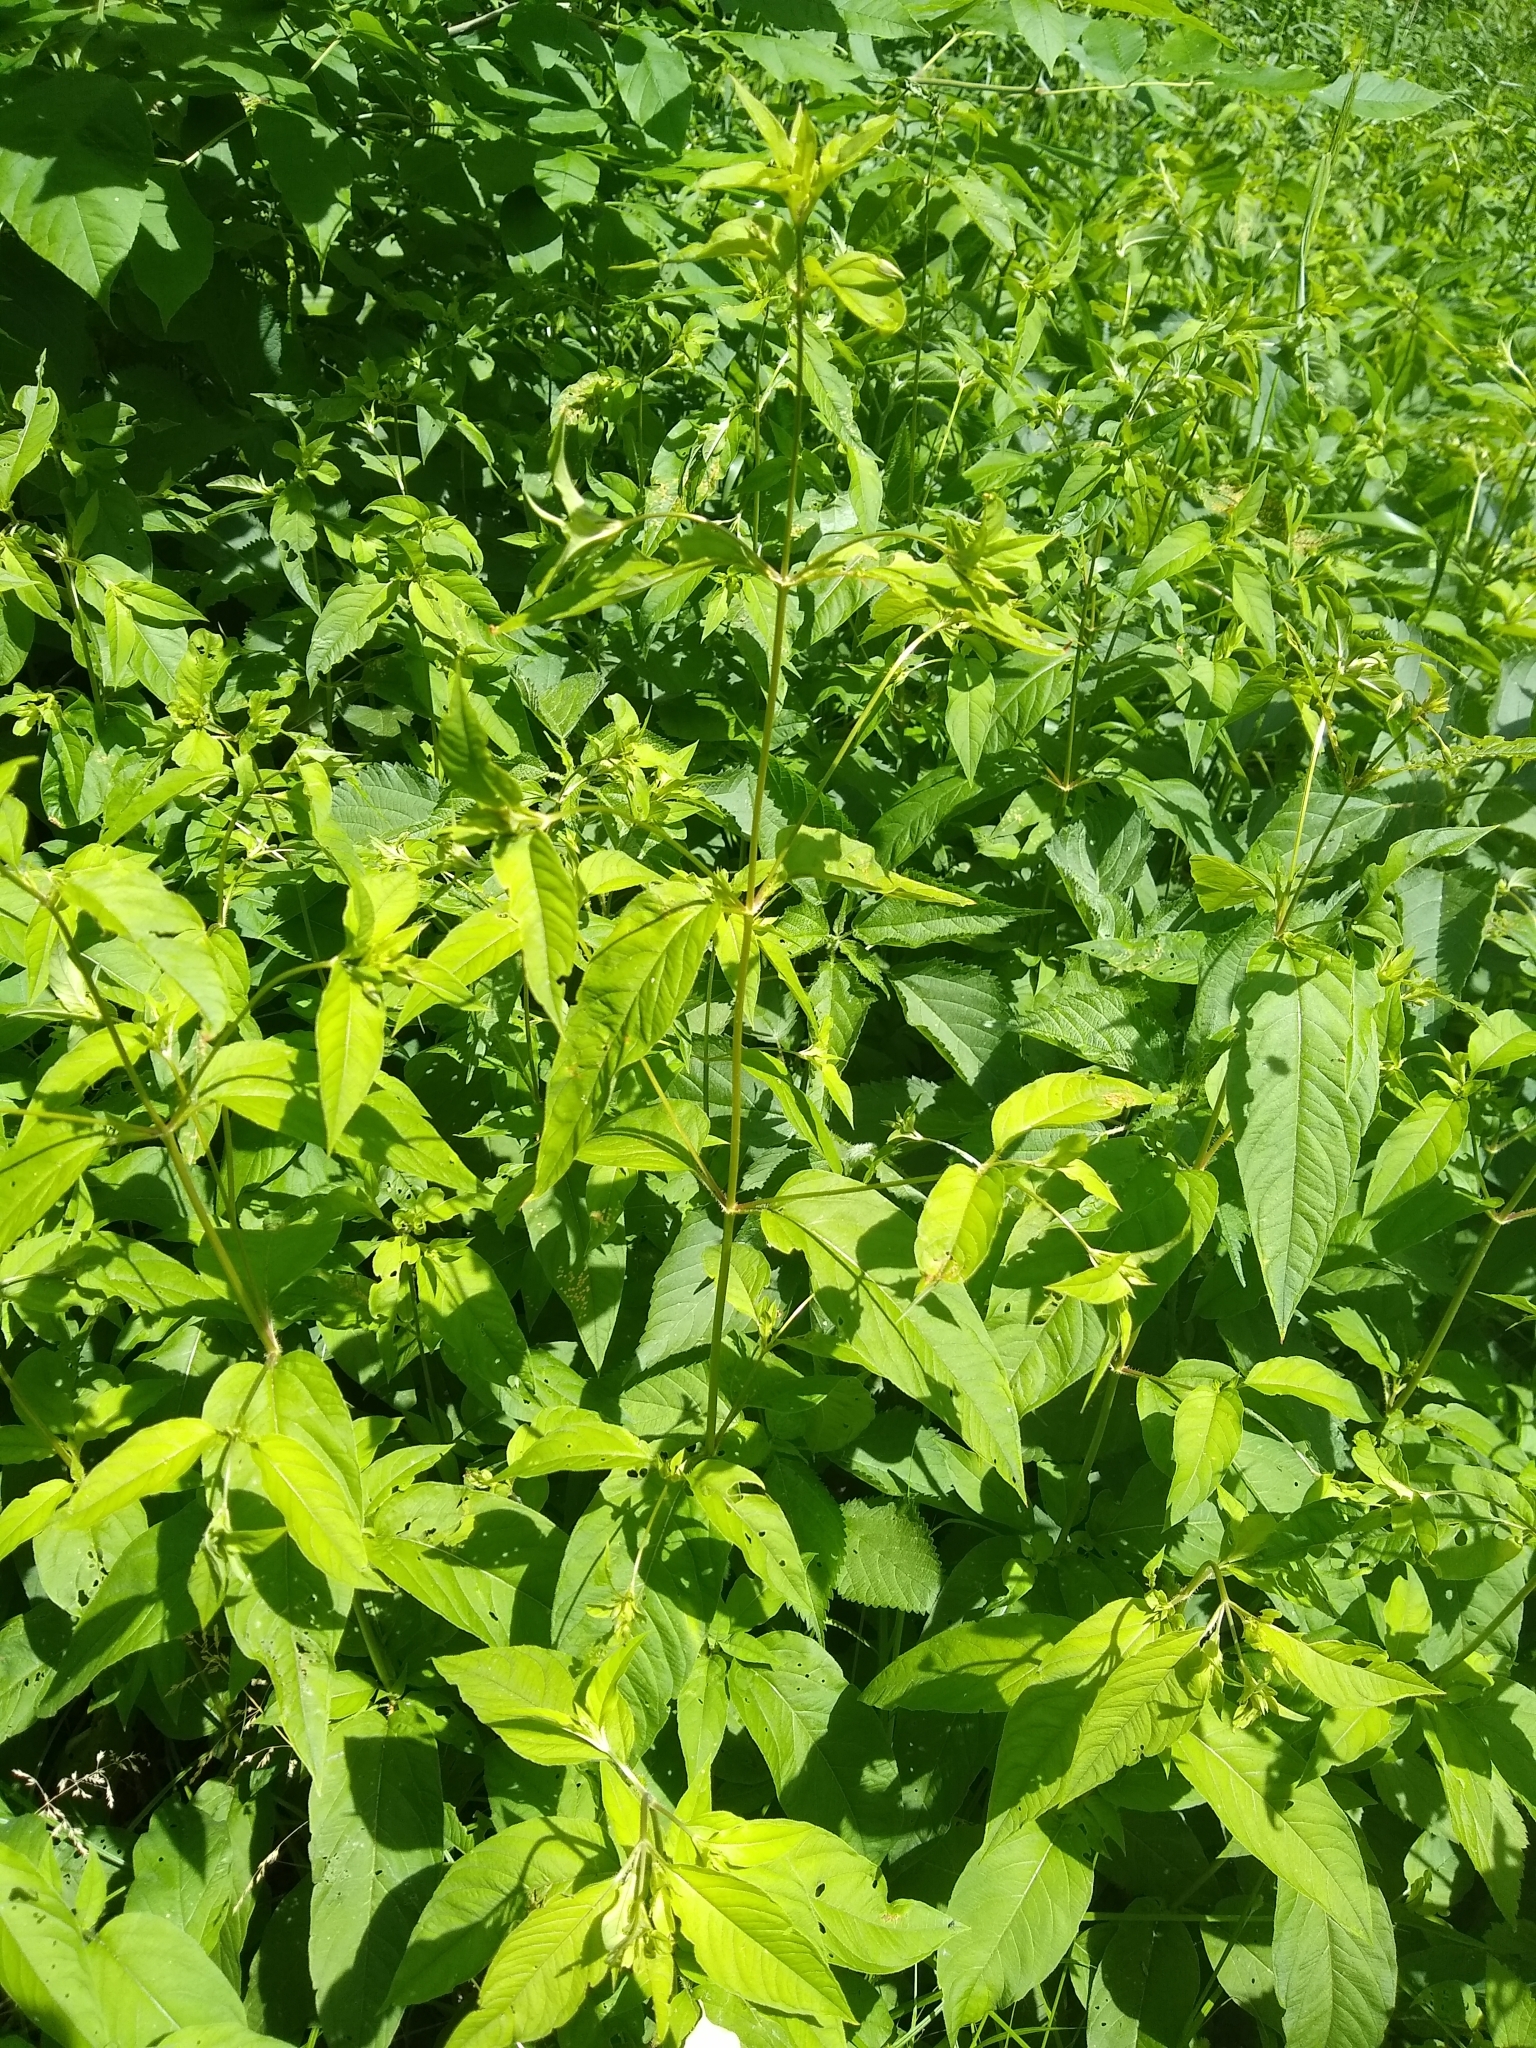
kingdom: Plantae
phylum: Tracheophyta
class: Magnoliopsida
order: Ericales
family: Primulaceae
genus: Lysimachia
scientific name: Lysimachia ciliata
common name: Fringed loosestrife
